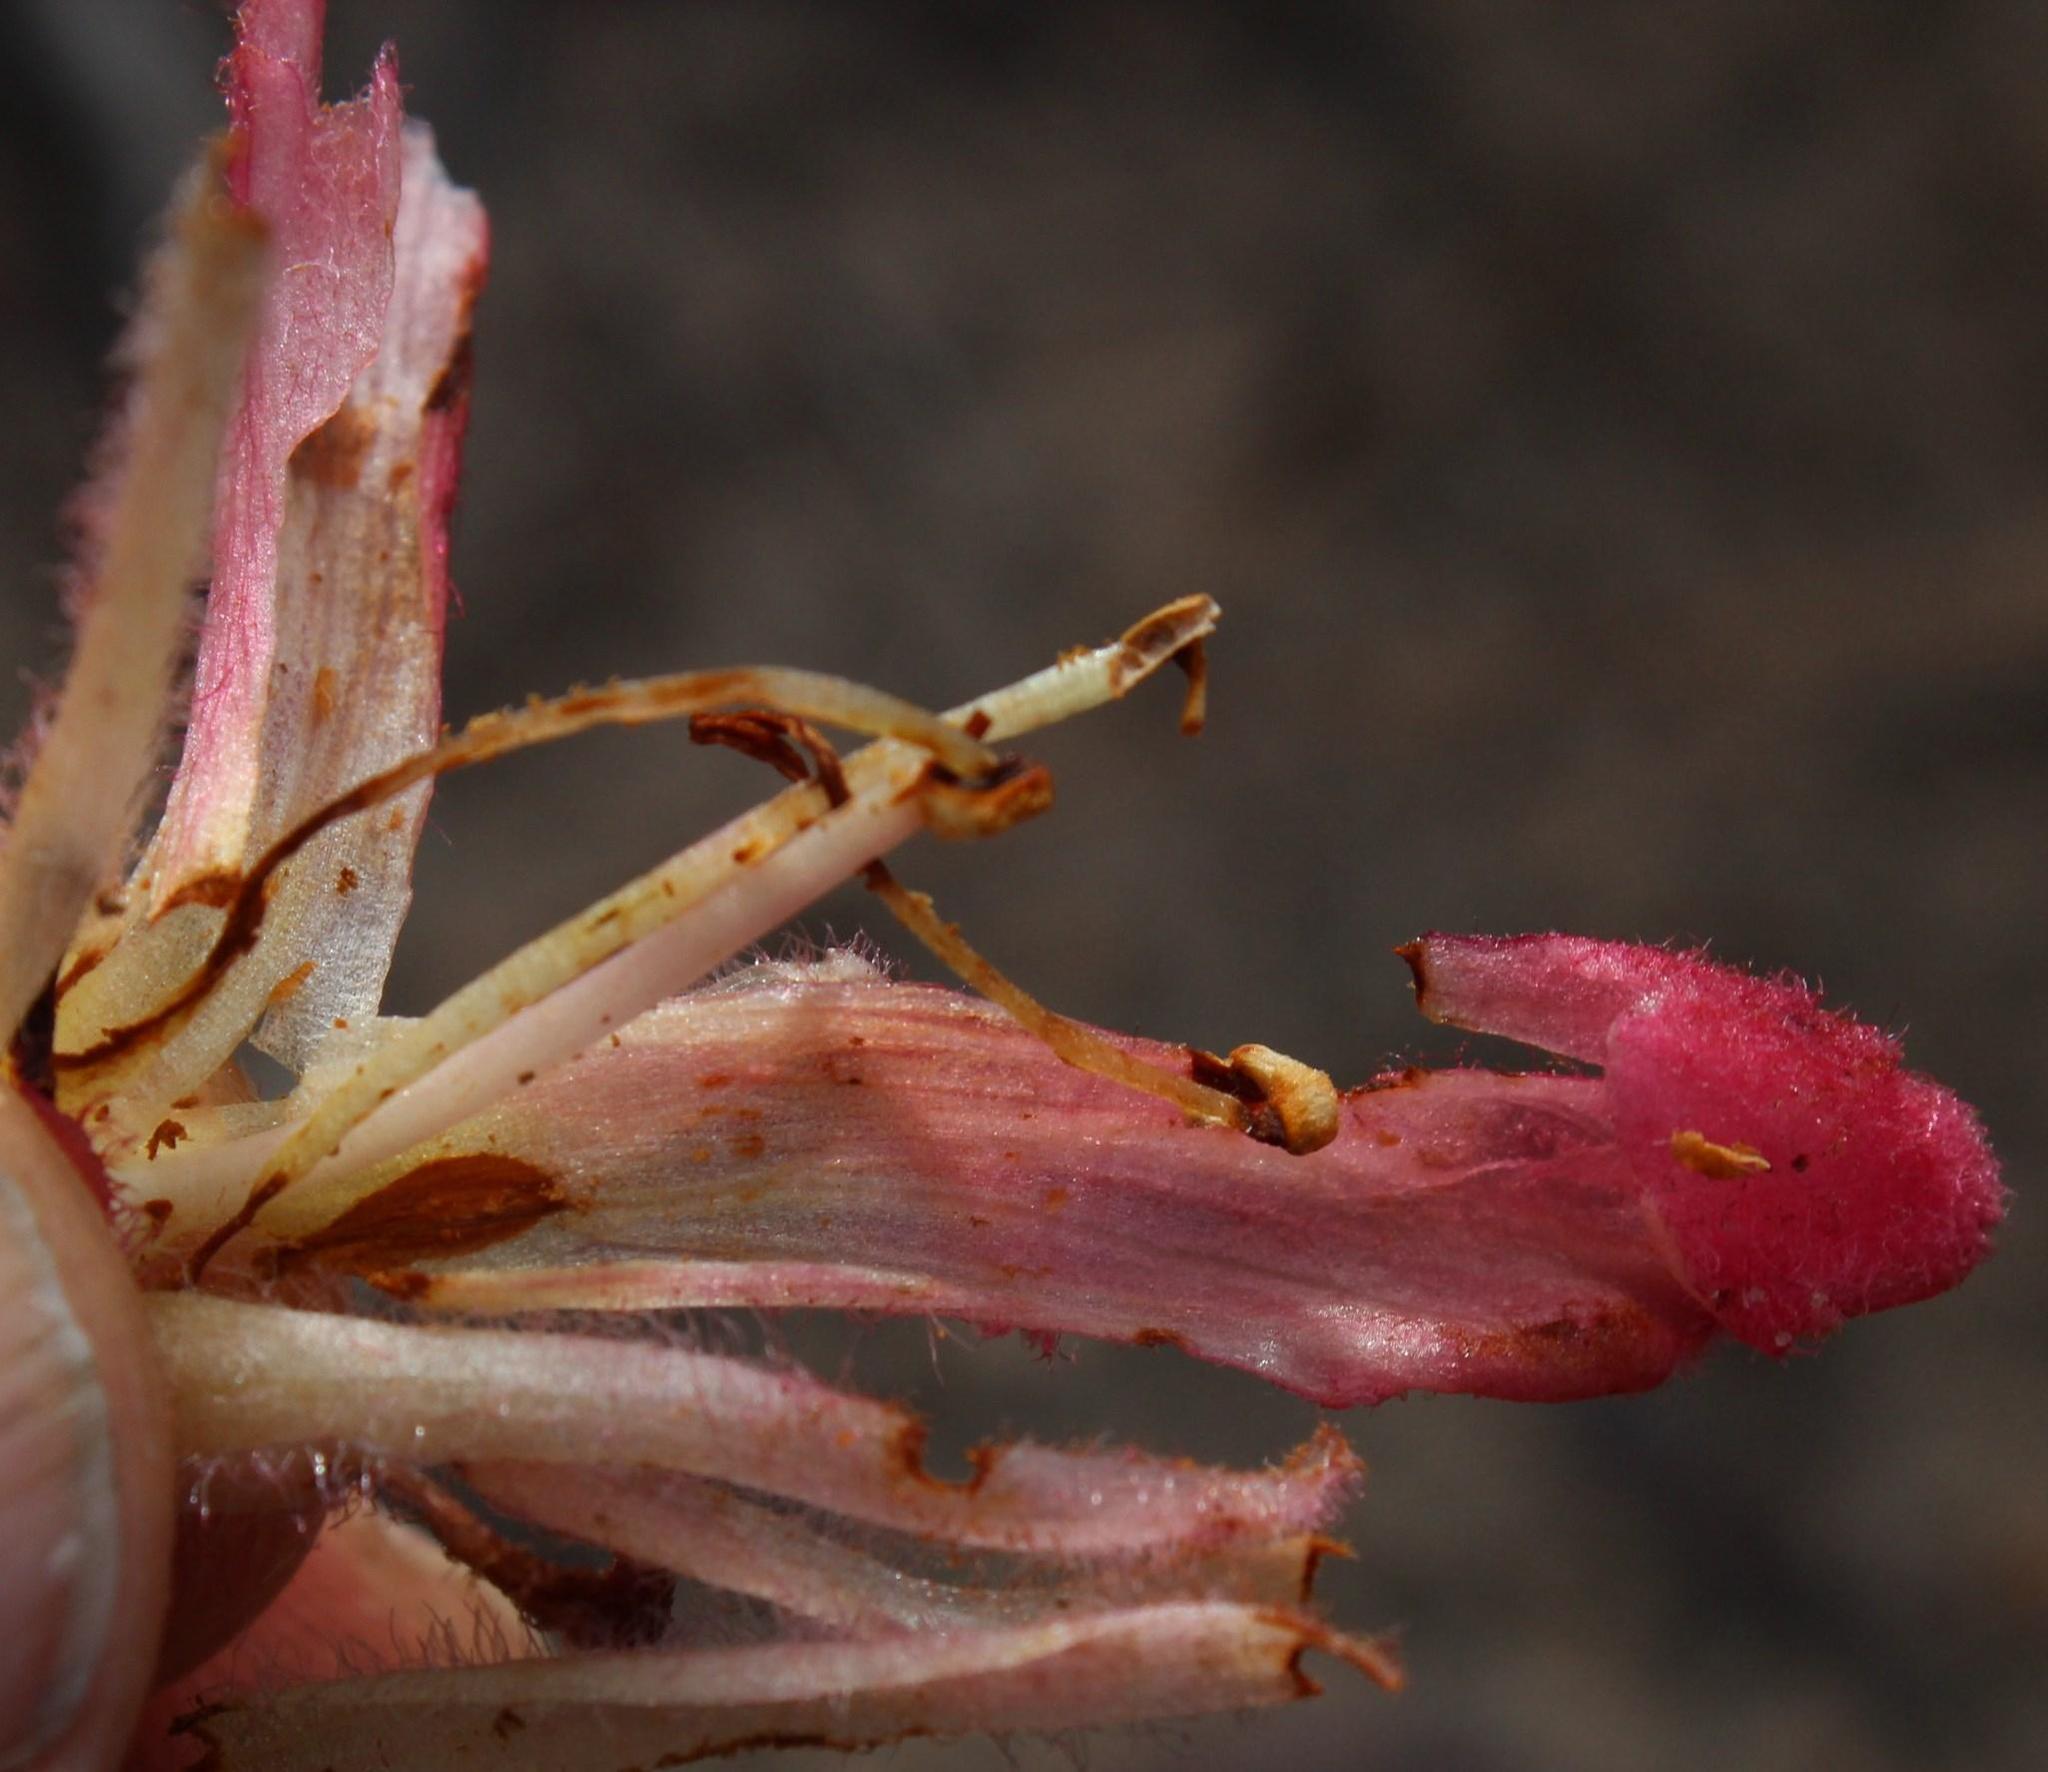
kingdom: Plantae
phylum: Tracheophyta
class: Magnoliopsida
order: Lamiales
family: Orobanchaceae
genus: Hyobanche
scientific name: Hyobanche sanguinea
